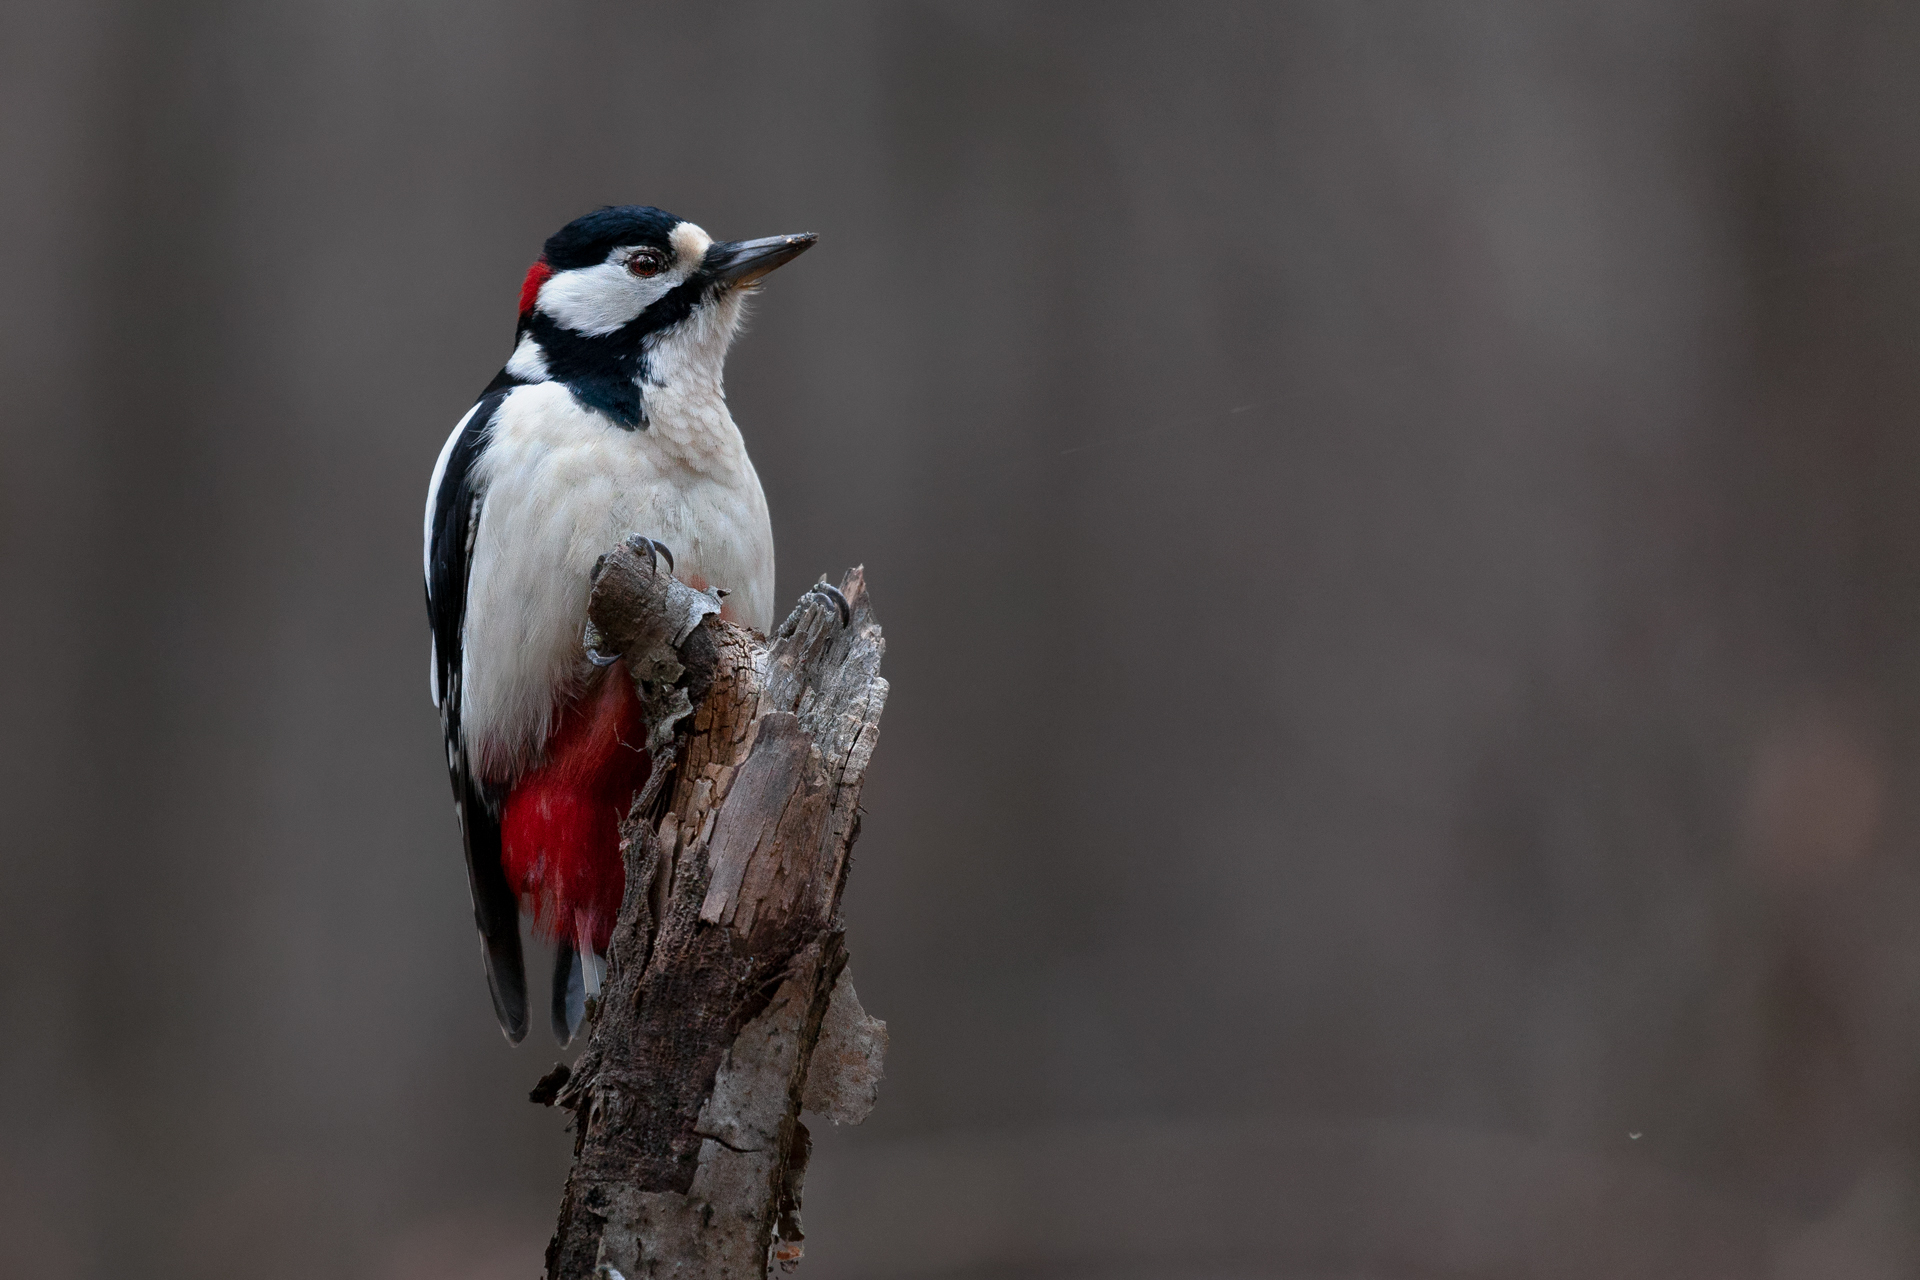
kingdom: Animalia
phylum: Chordata
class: Aves
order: Piciformes
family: Picidae
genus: Dendrocopos
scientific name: Dendrocopos major
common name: Great spotted woodpecker
